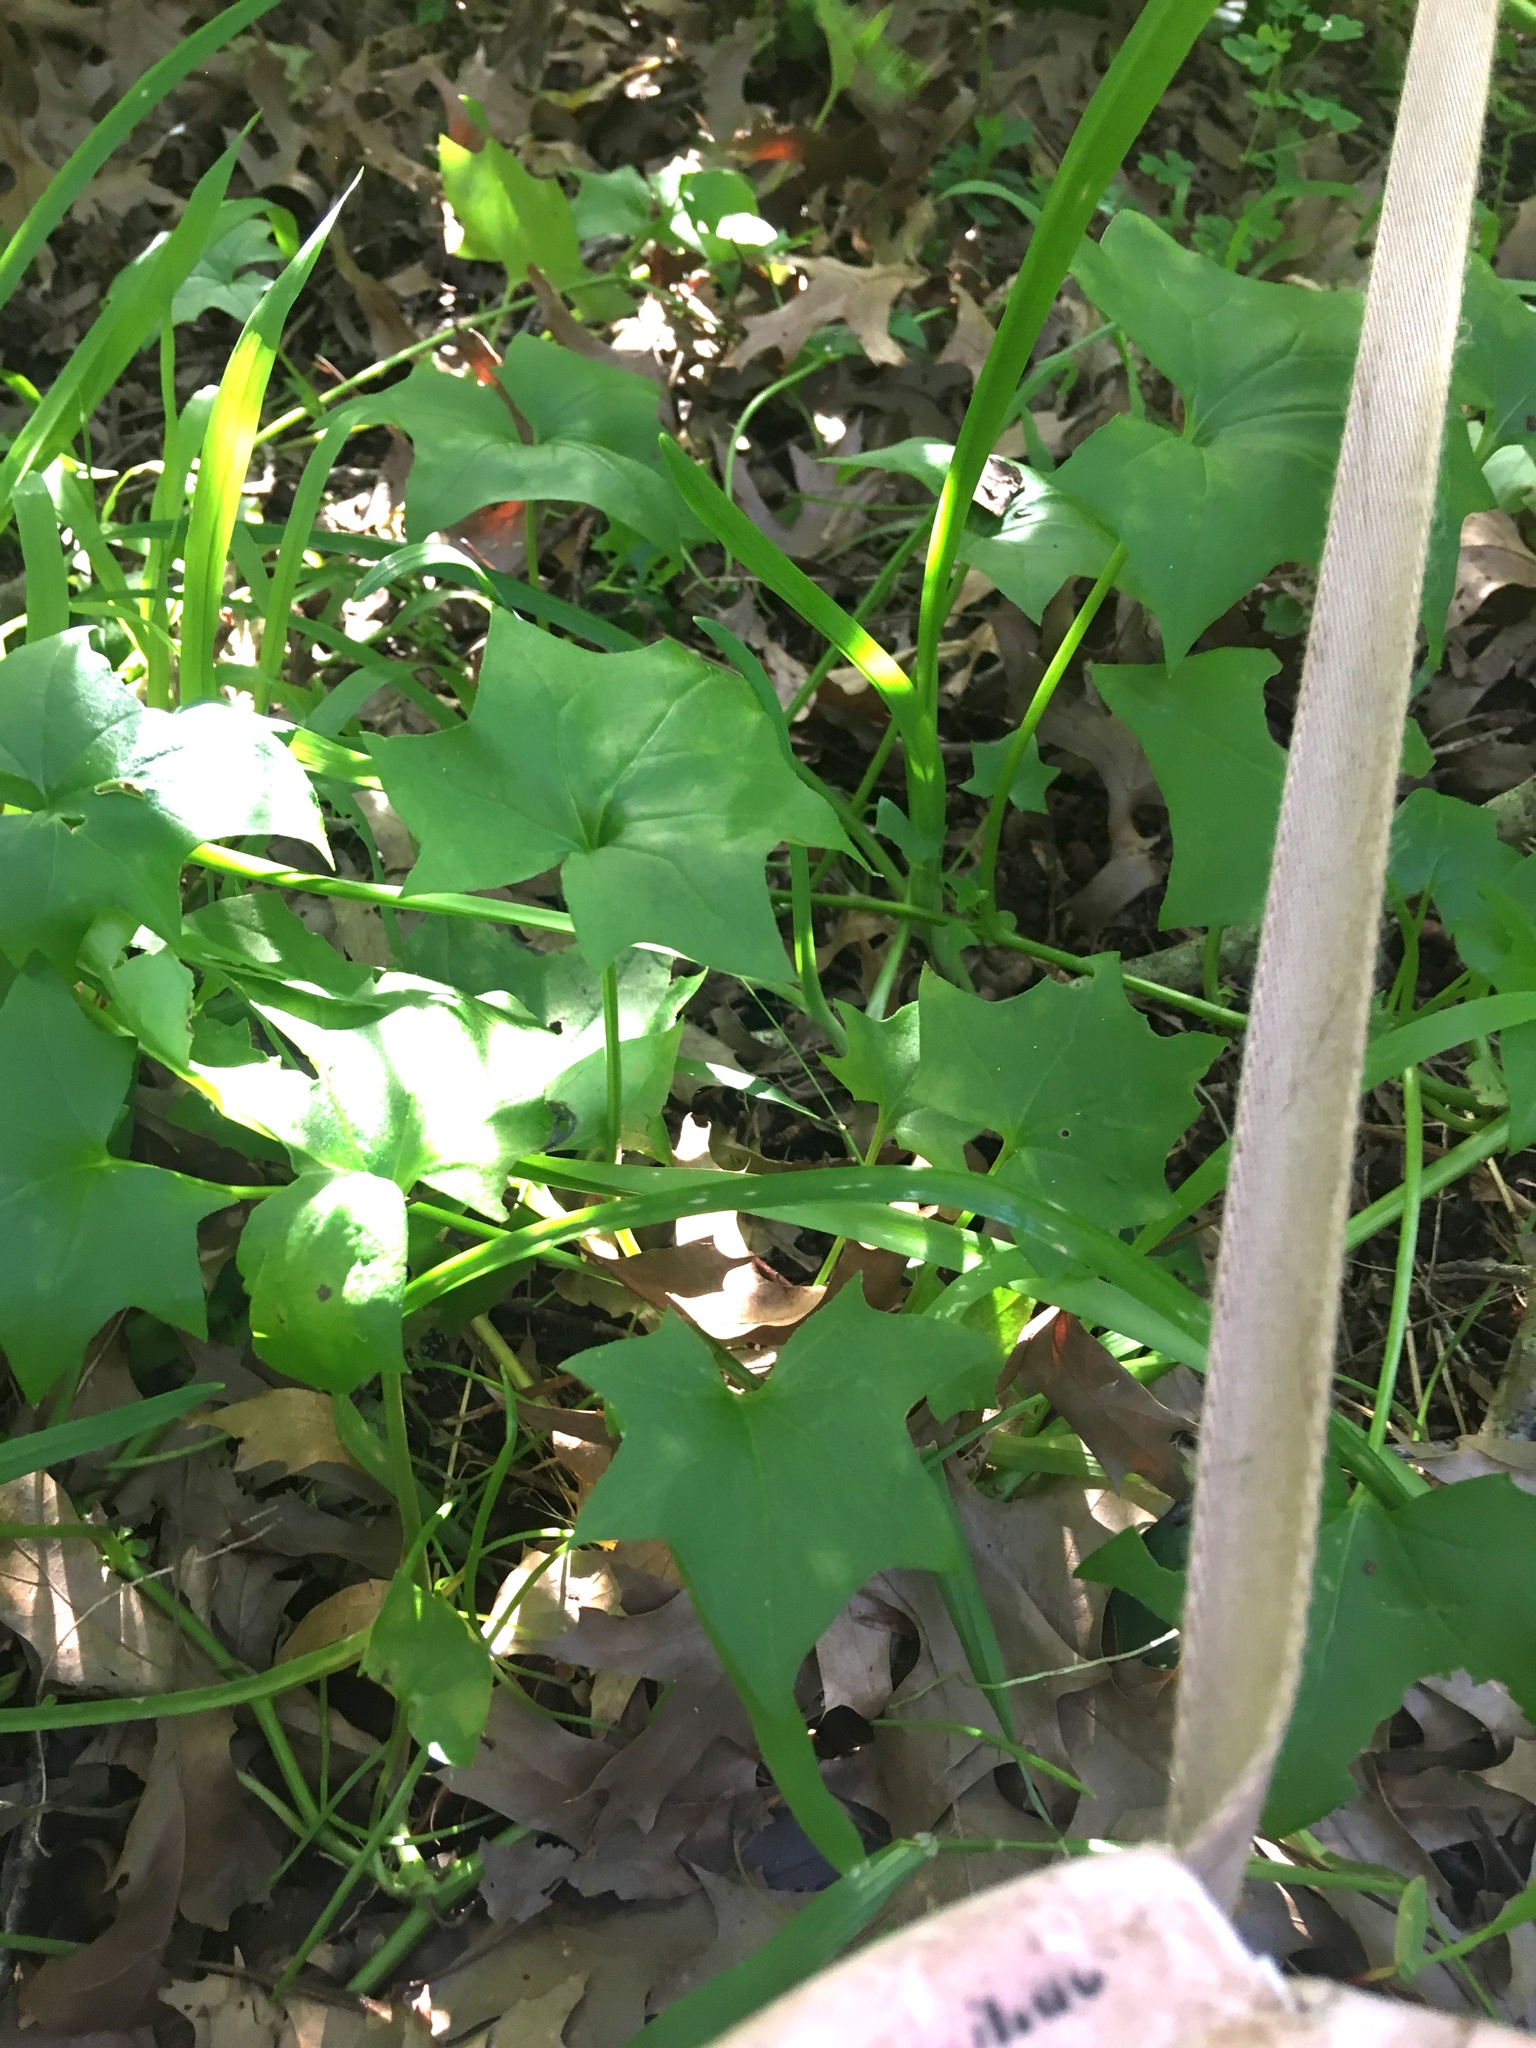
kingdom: Plantae
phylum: Tracheophyta
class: Magnoliopsida
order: Asterales
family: Asteraceae
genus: Delairea
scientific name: Delairea odorata
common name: Cape-ivy
